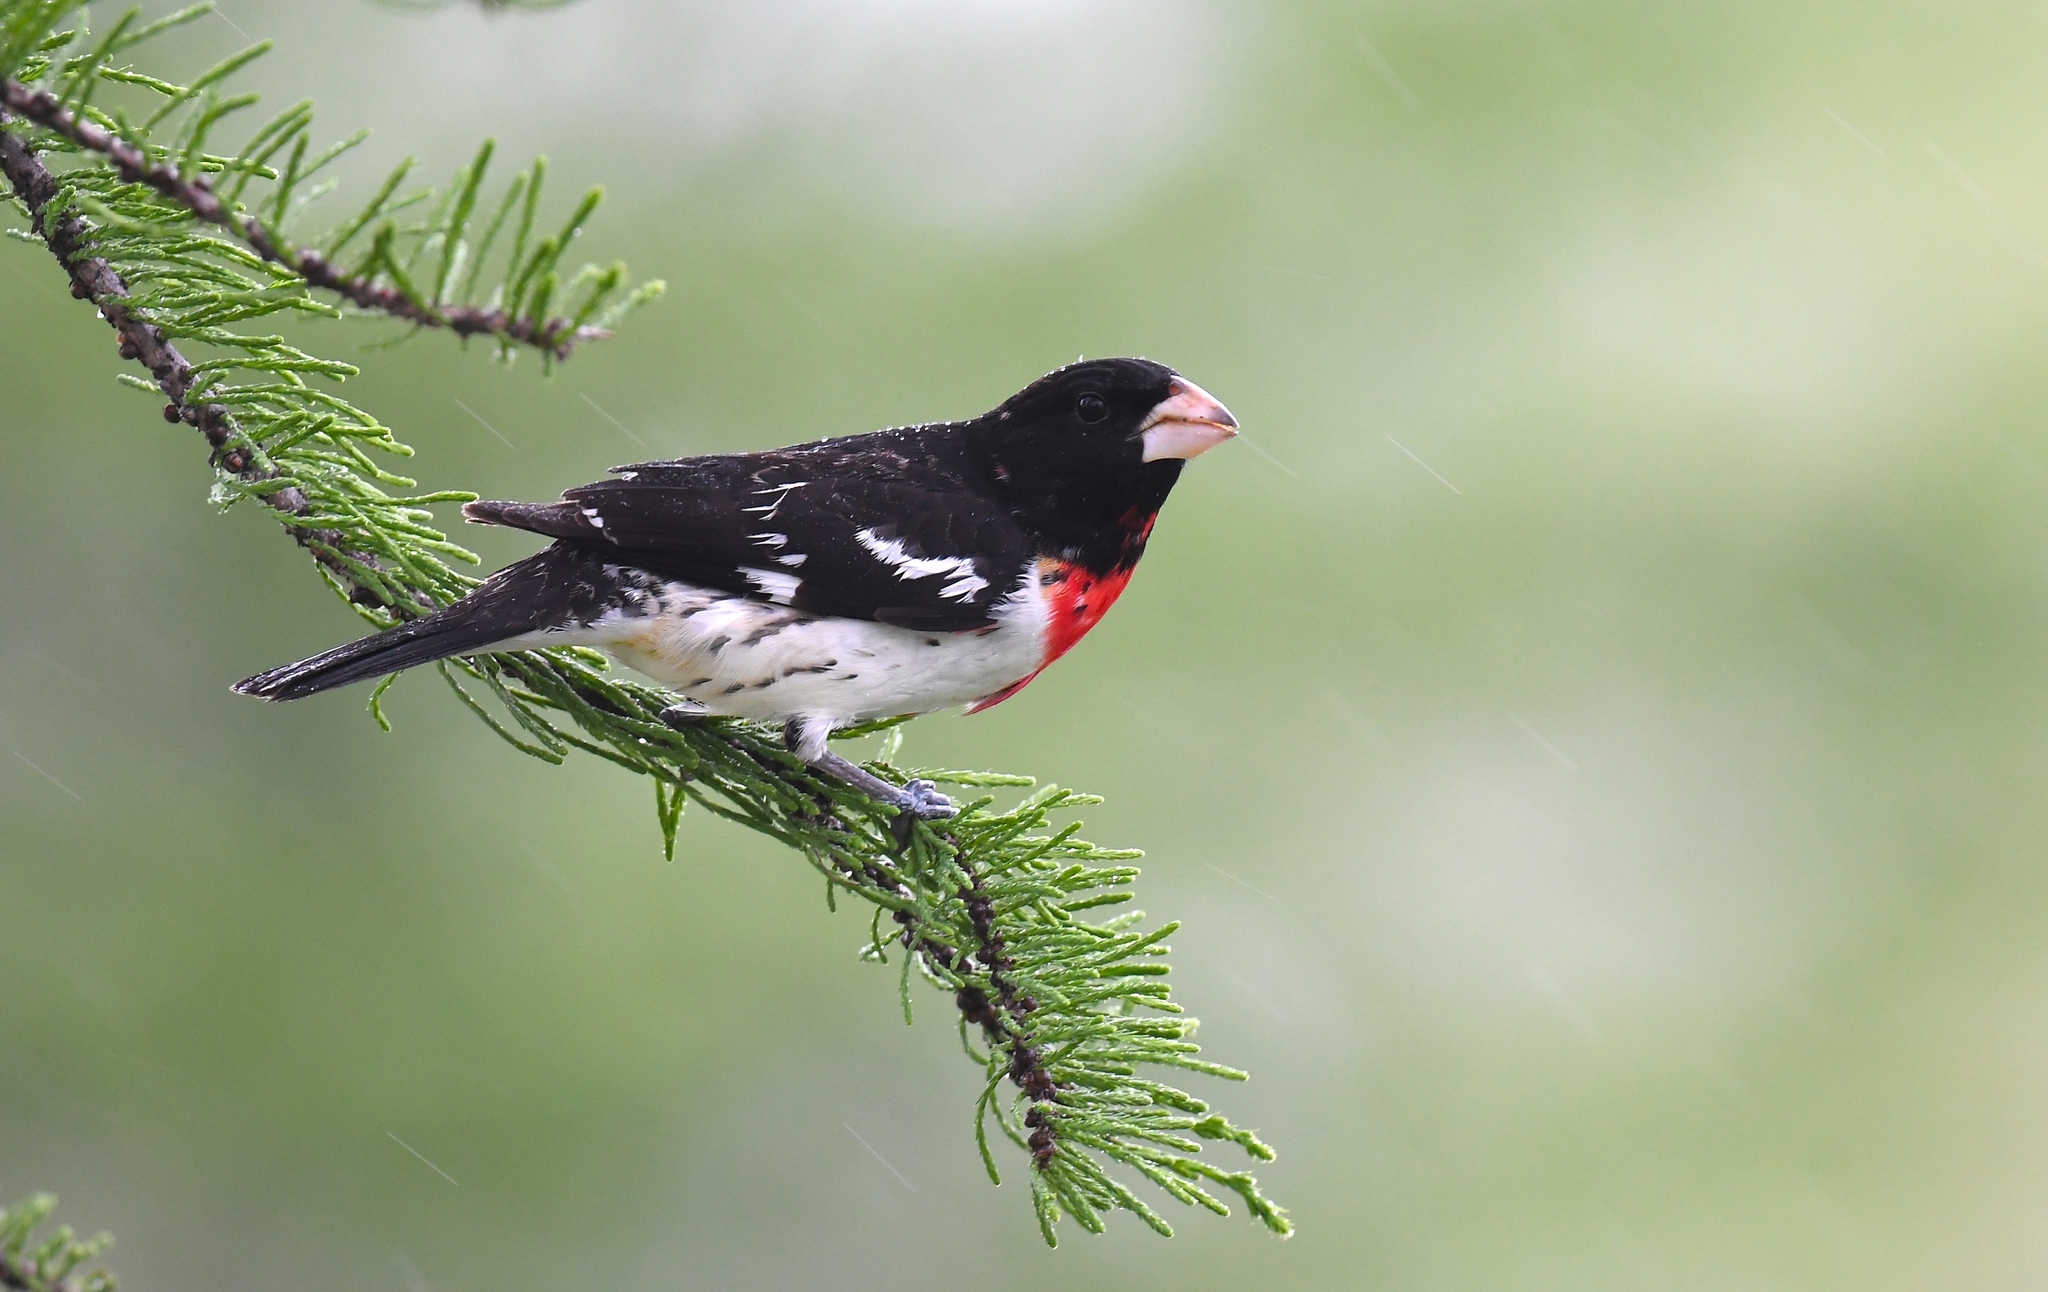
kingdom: Animalia
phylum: Chordata
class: Aves
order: Passeriformes
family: Cardinalidae
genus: Pheucticus
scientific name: Pheucticus ludovicianus
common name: Rose-breasted grosbeak
